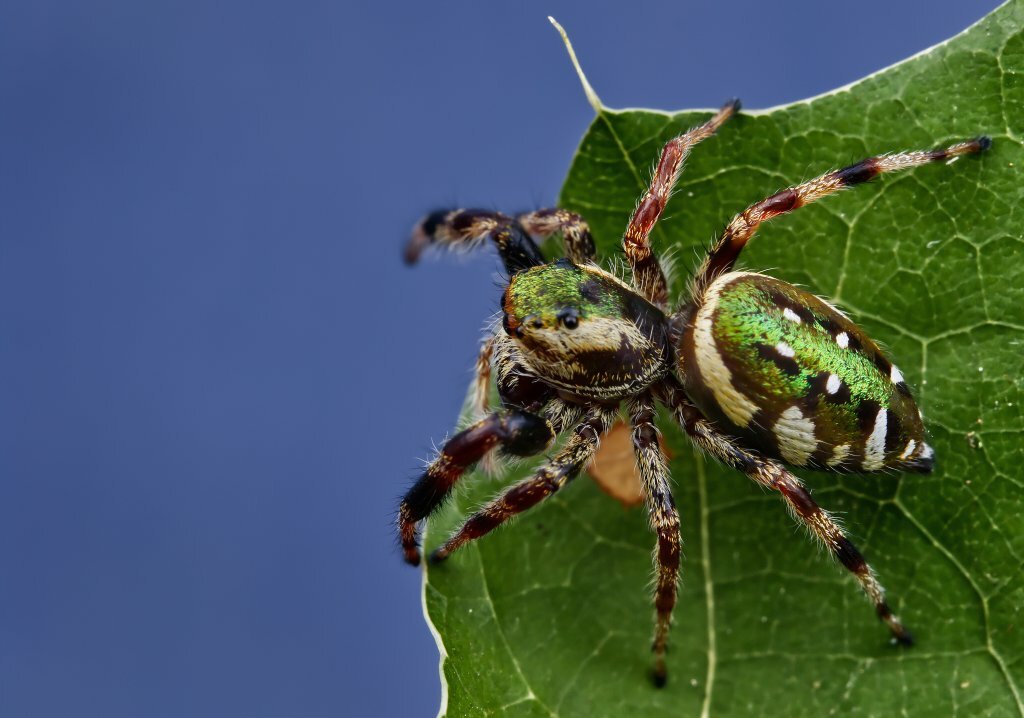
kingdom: Animalia
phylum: Arthropoda
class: Arachnida
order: Araneae
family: Salticidae
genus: Paraphidippus
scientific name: Paraphidippus aurantius
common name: Jumping spiders
